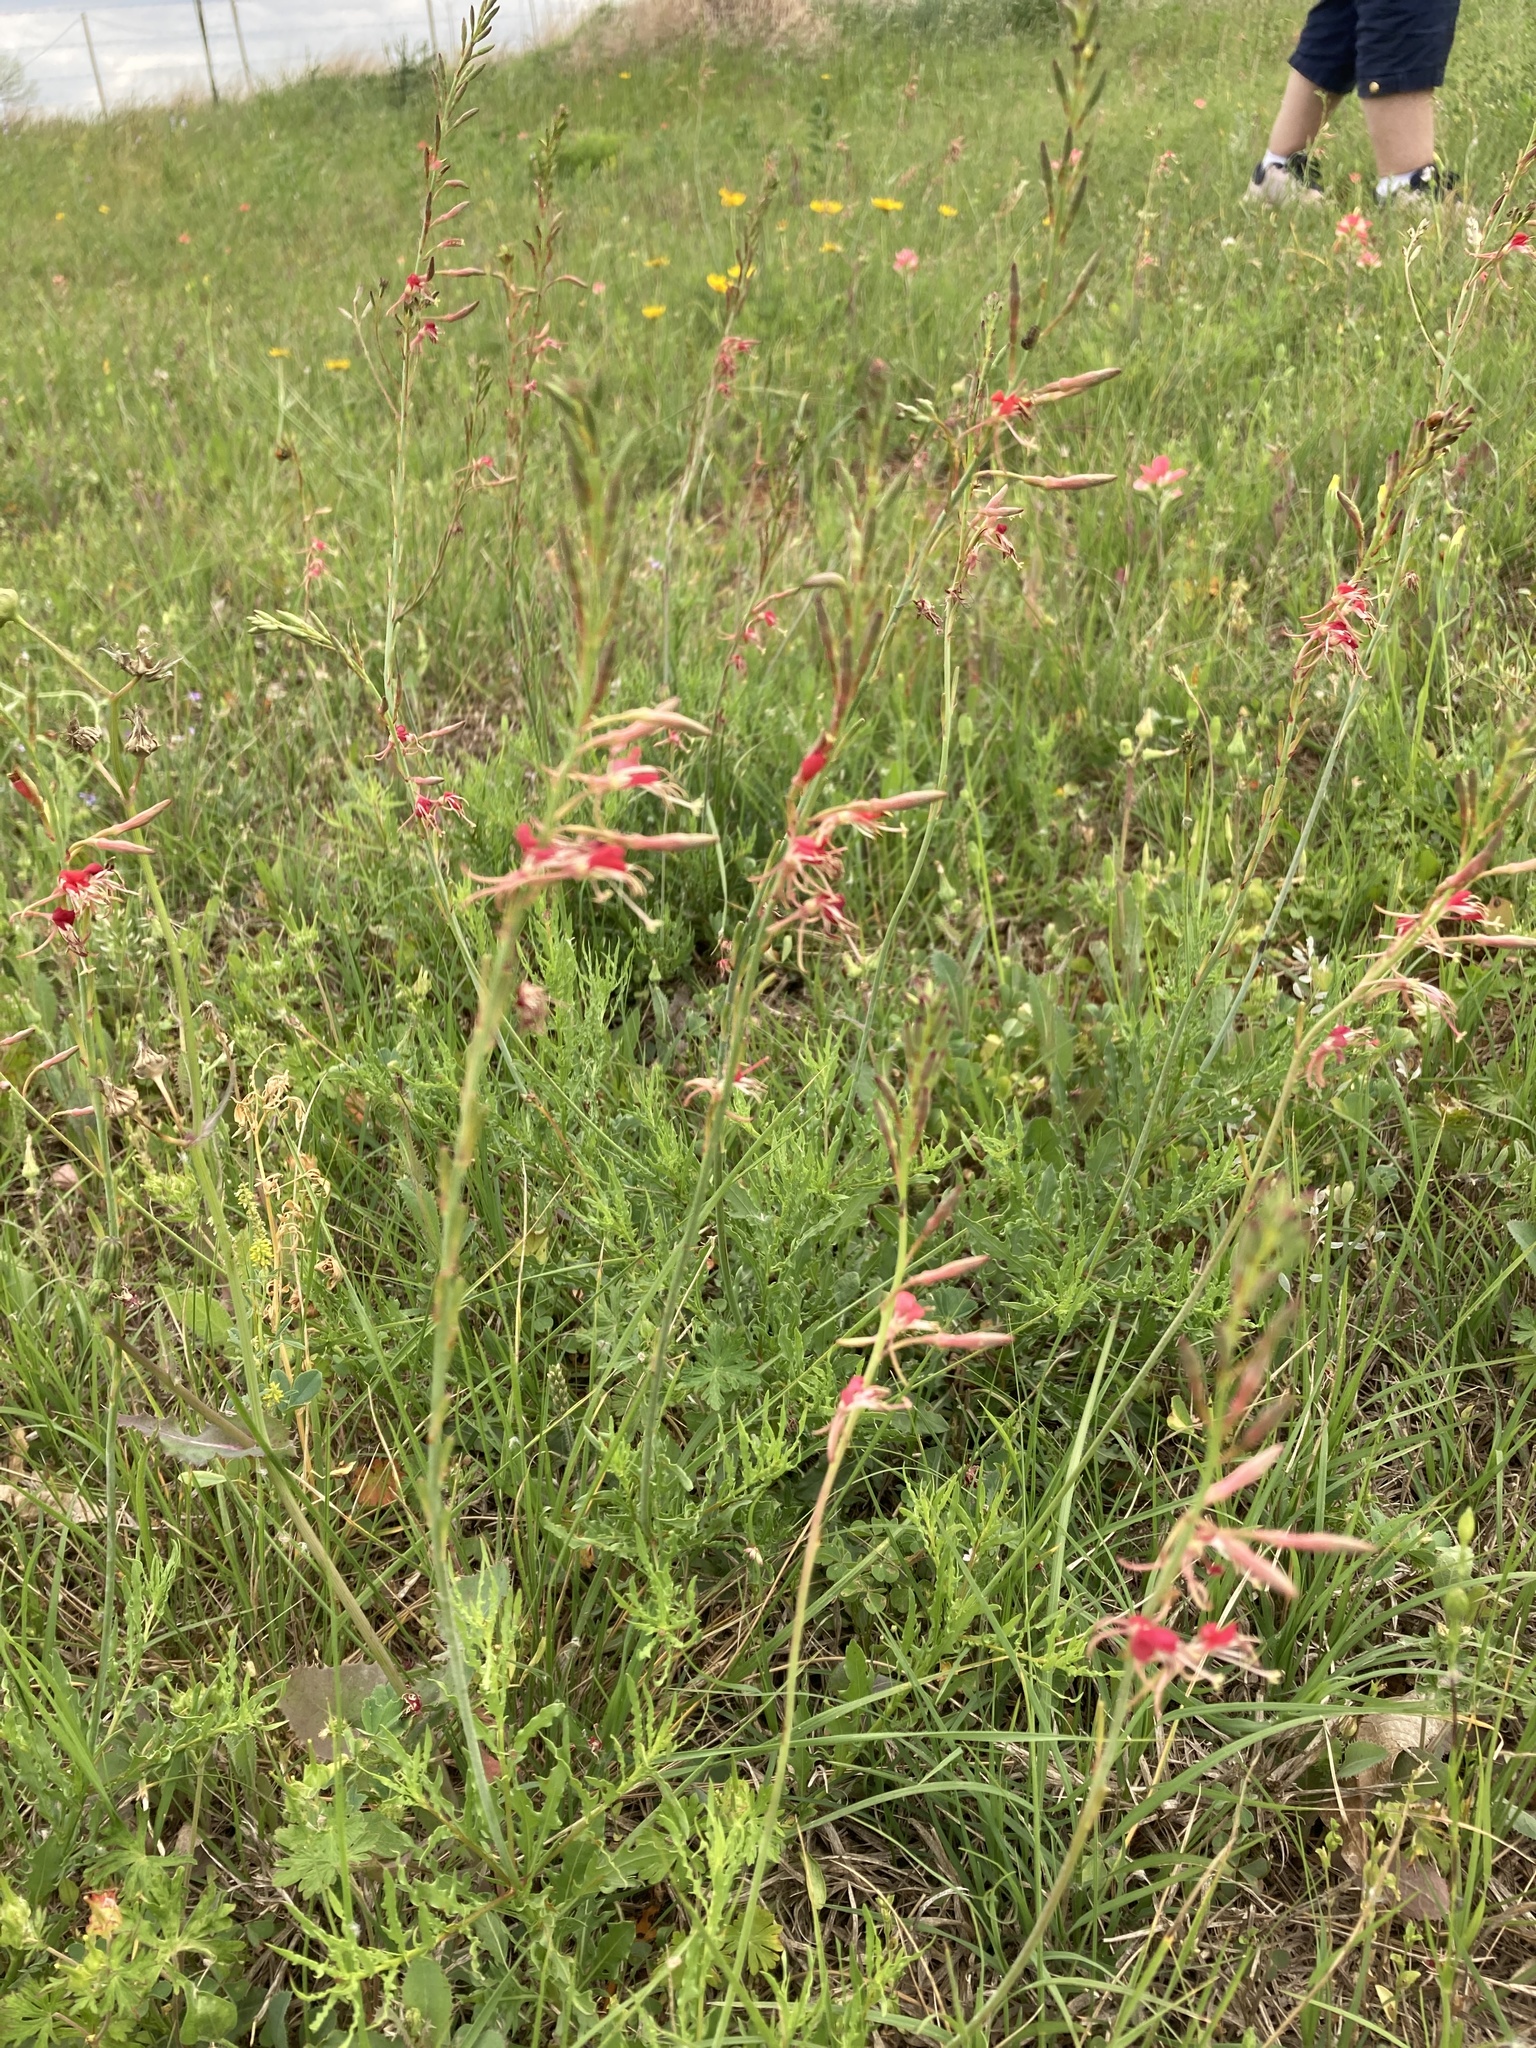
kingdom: Plantae
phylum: Tracheophyta
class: Magnoliopsida
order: Myrtales
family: Onagraceae
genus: Oenothera
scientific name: Oenothera cinerea
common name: Woolly beeblossom
